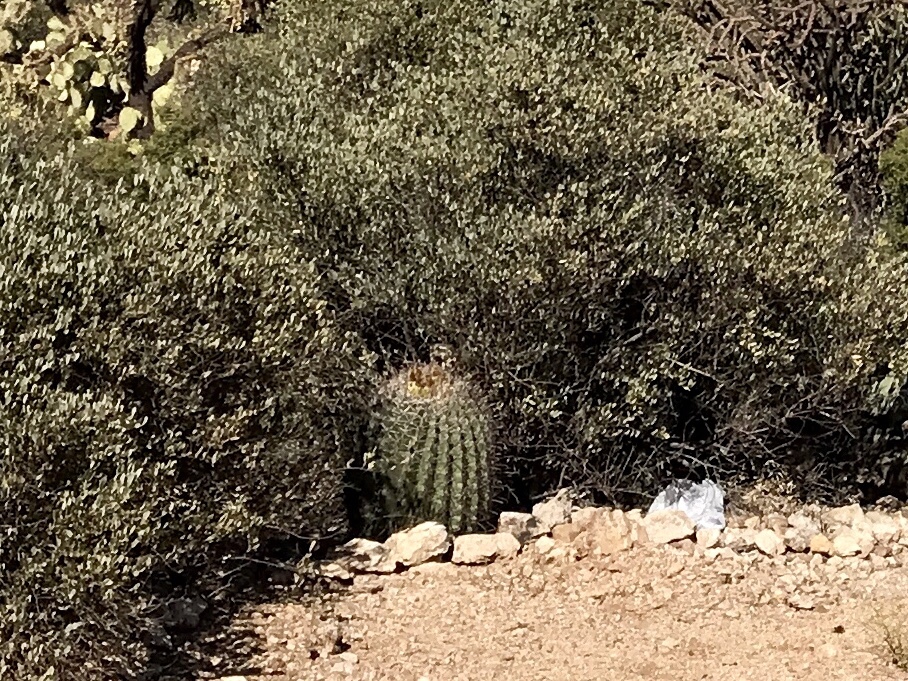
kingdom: Plantae
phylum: Tracheophyta
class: Magnoliopsida
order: Caryophyllales
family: Cactaceae
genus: Ferocactus
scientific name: Ferocactus wislizeni
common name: Candy barrel cactus
